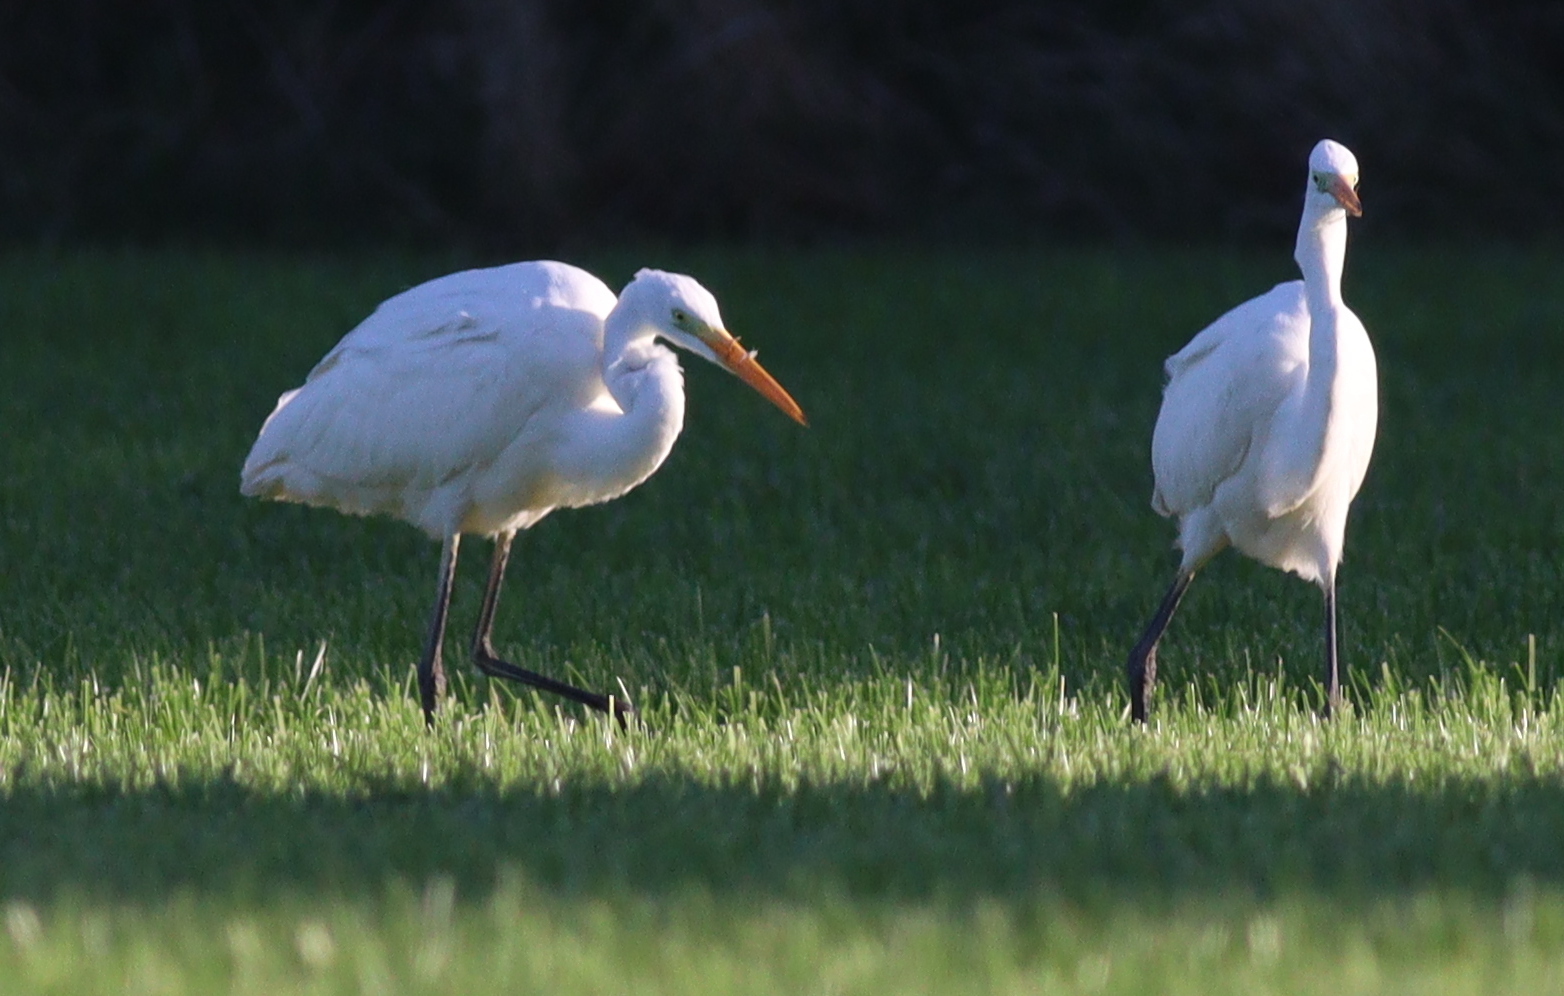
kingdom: Animalia
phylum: Chordata
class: Aves
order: Pelecaniformes
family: Ardeidae
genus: Ardea
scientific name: Ardea alba
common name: Great egret
